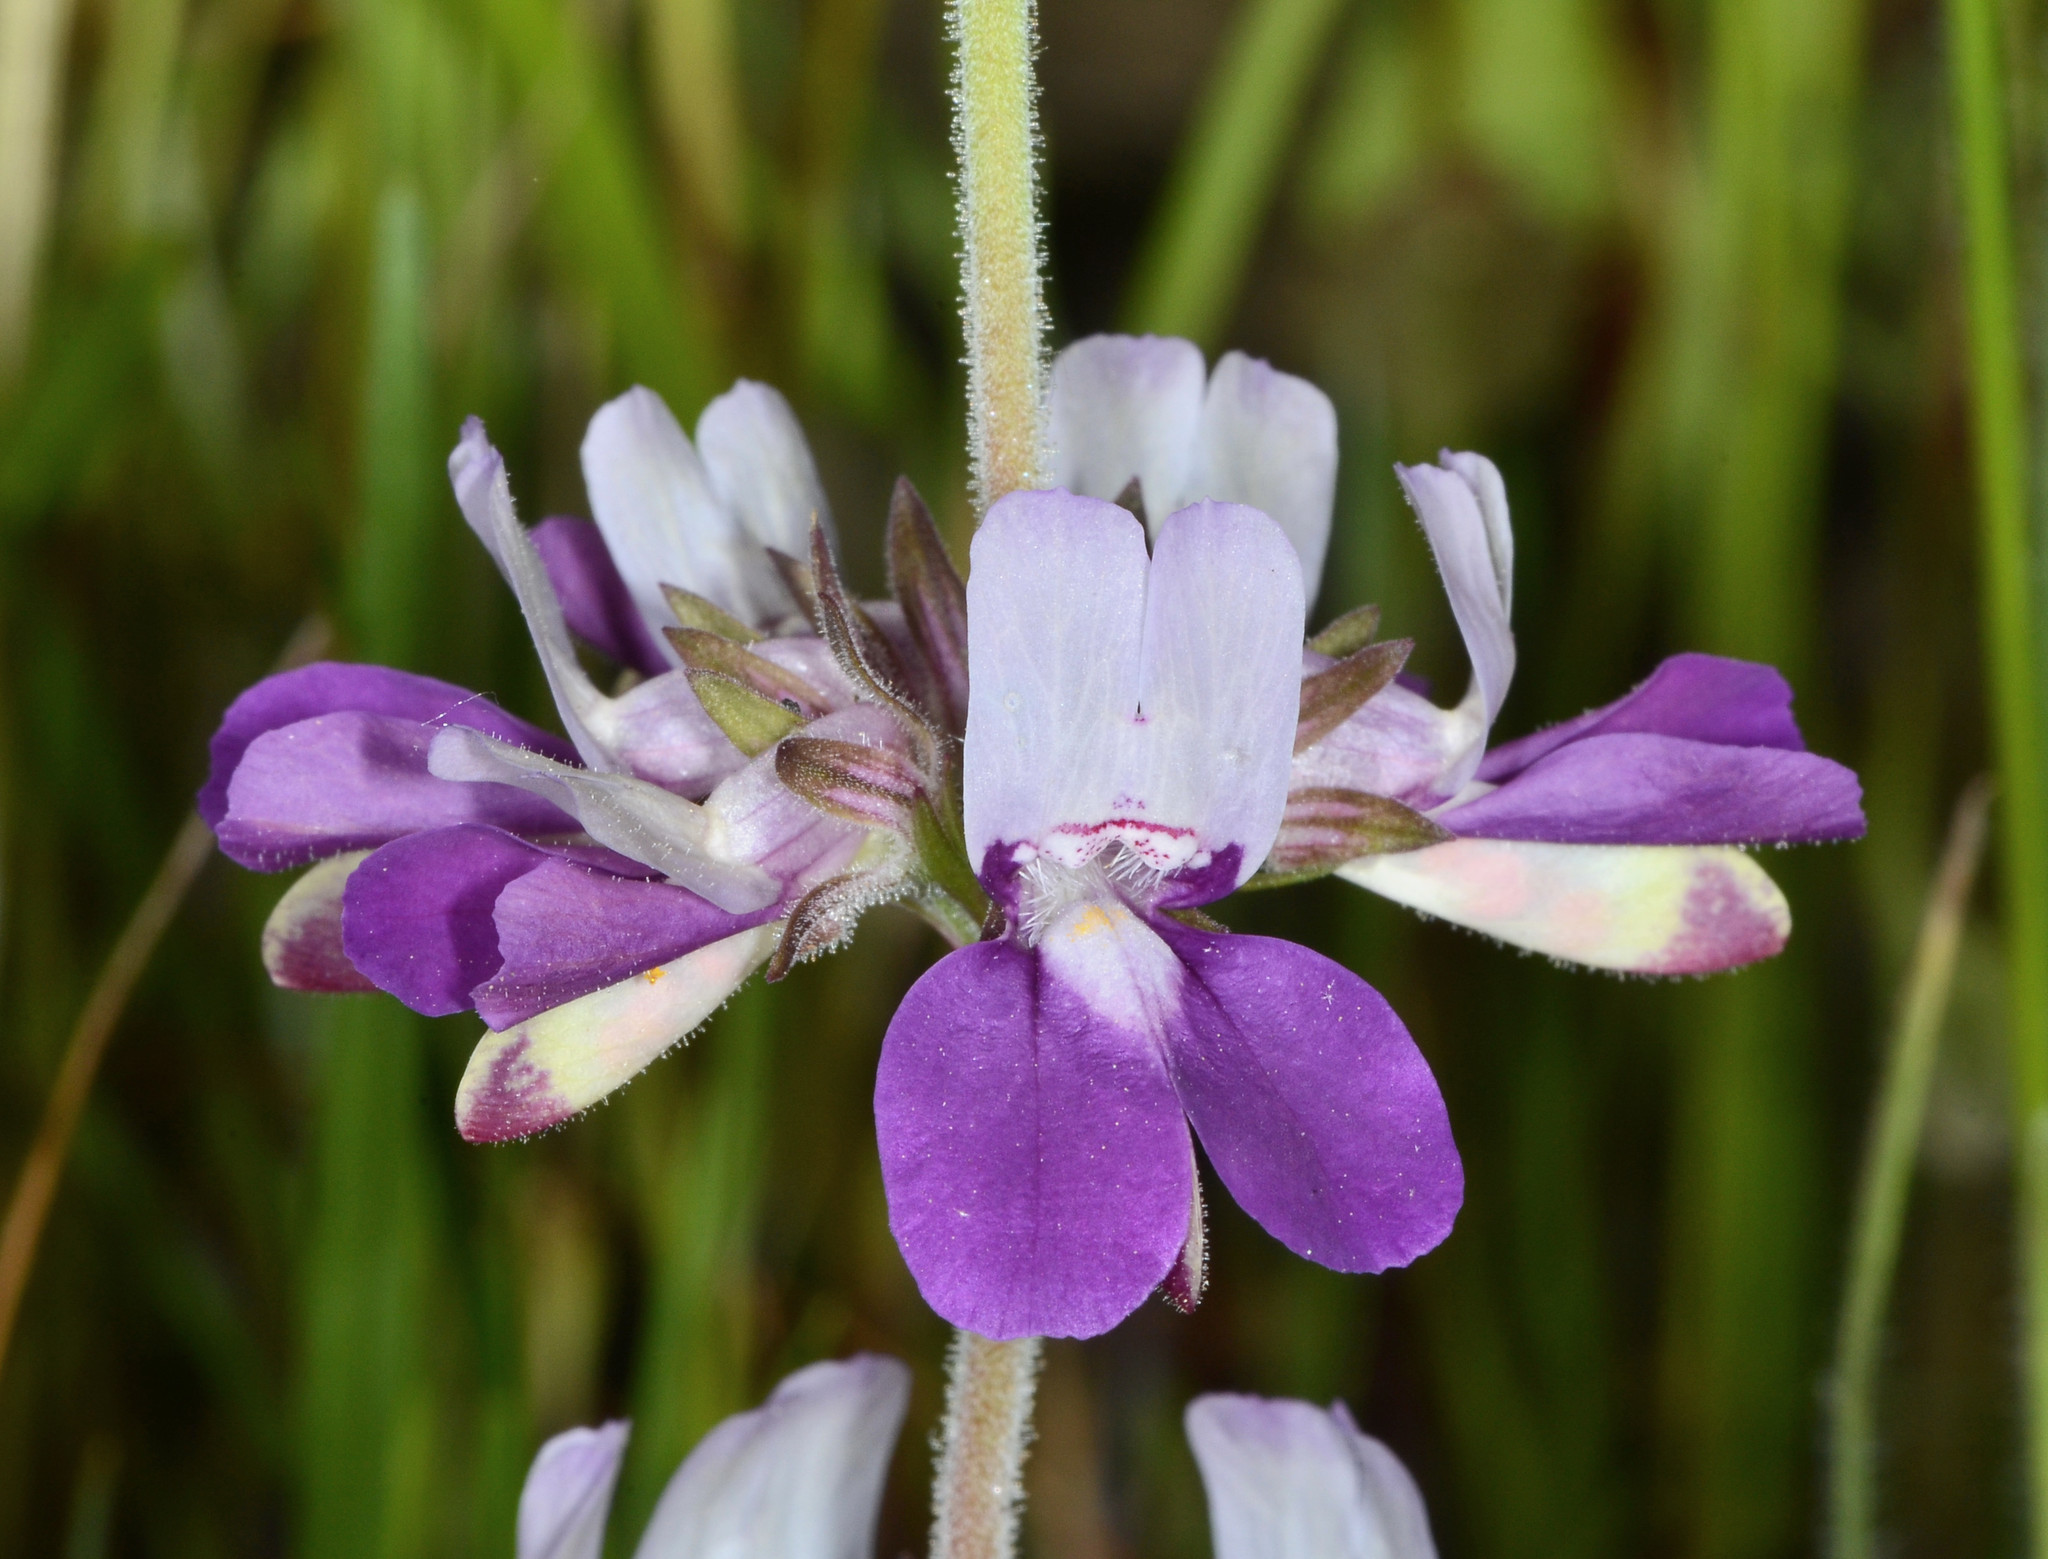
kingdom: Plantae
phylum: Tracheophyta
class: Magnoliopsida
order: Lamiales
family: Plantaginaceae
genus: Collinsia
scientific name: Collinsia heterophylla
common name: Chinese-houses
